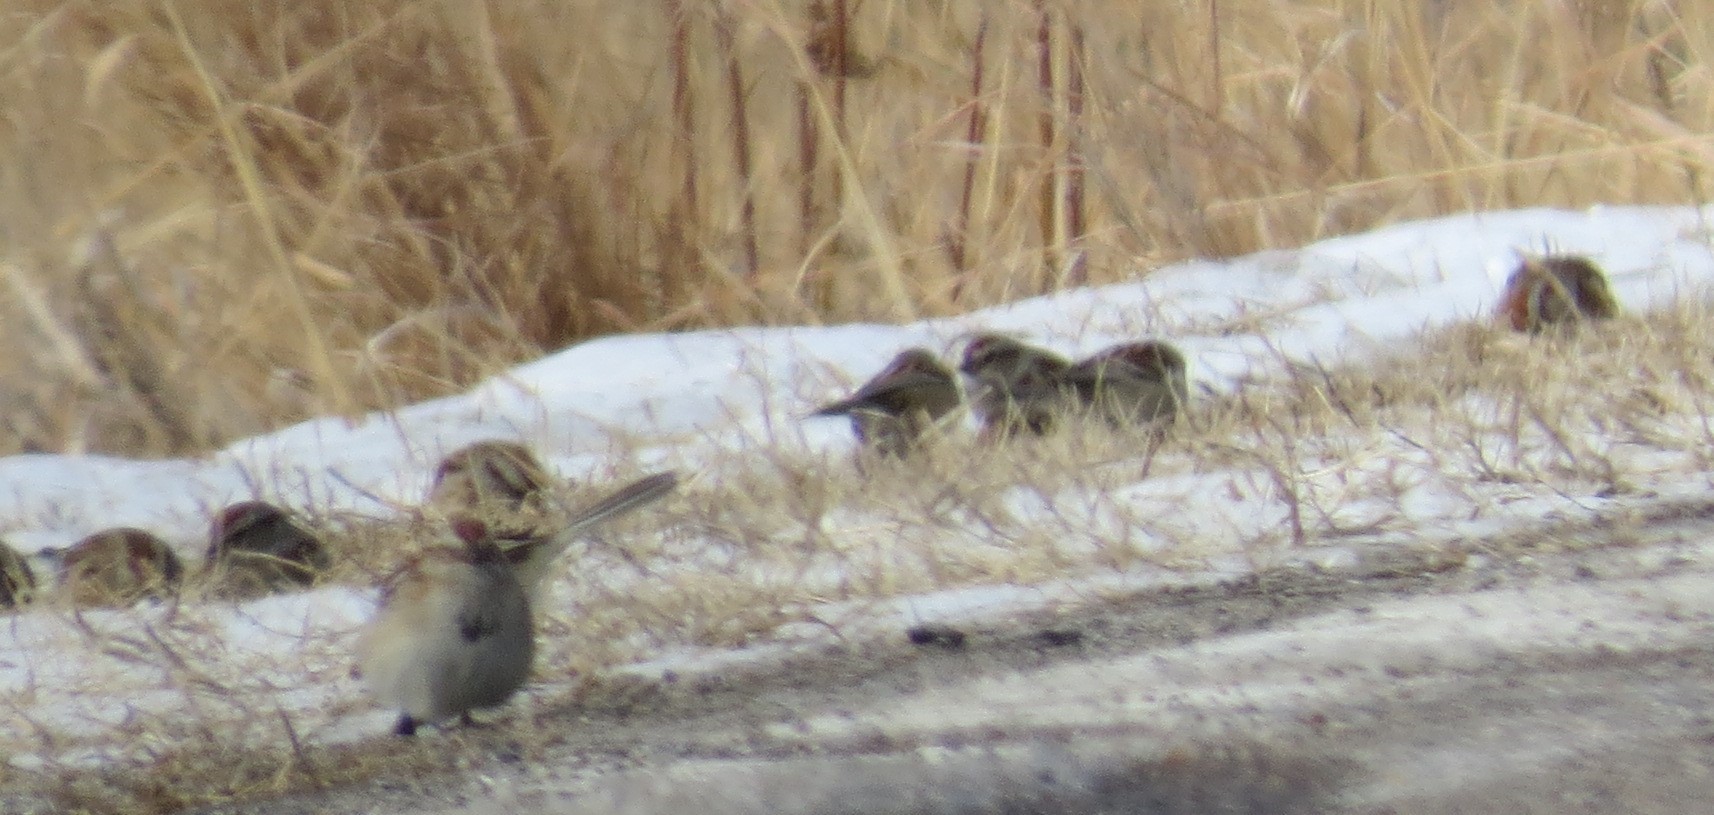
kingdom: Animalia
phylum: Chordata
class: Aves
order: Passeriformes
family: Passerellidae
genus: Spizelloides
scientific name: Spizelloides arborea
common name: American tree sparrow
